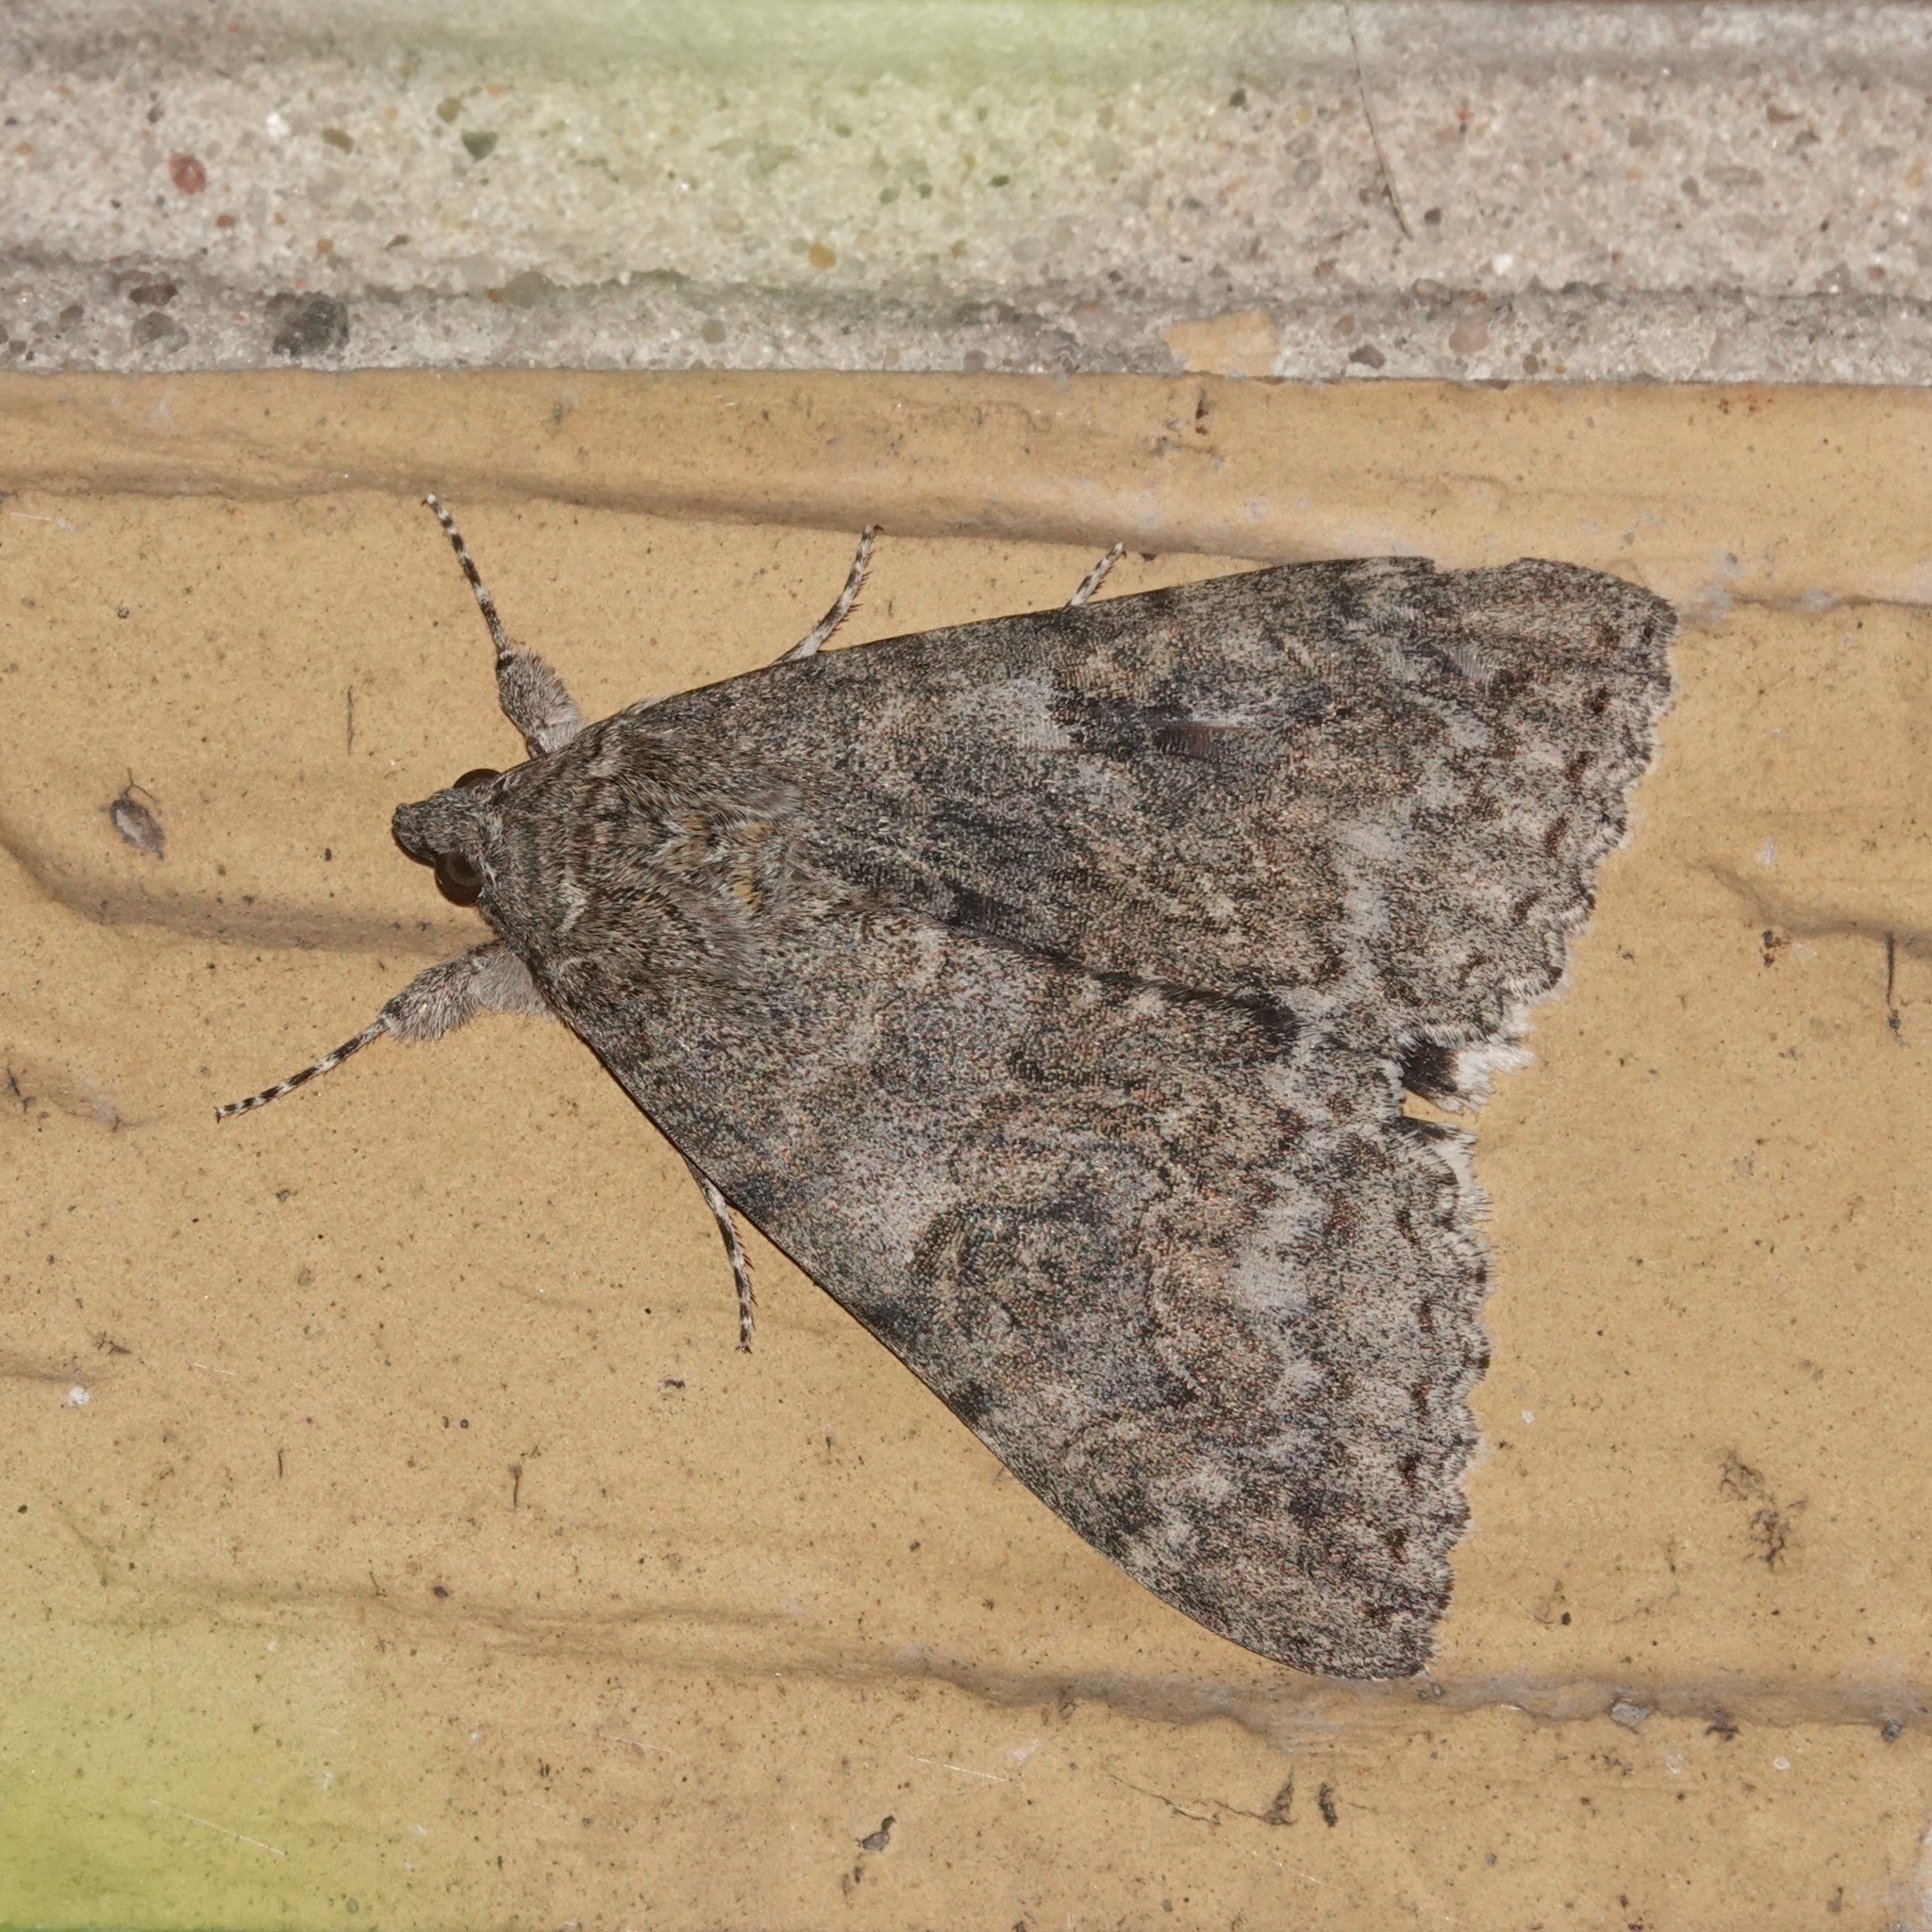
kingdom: Animalia
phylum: Arthropoda
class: Insecta
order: Lepidoptera
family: Erebidae
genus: Catocala
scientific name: Catocala nupta
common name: Red underwing
